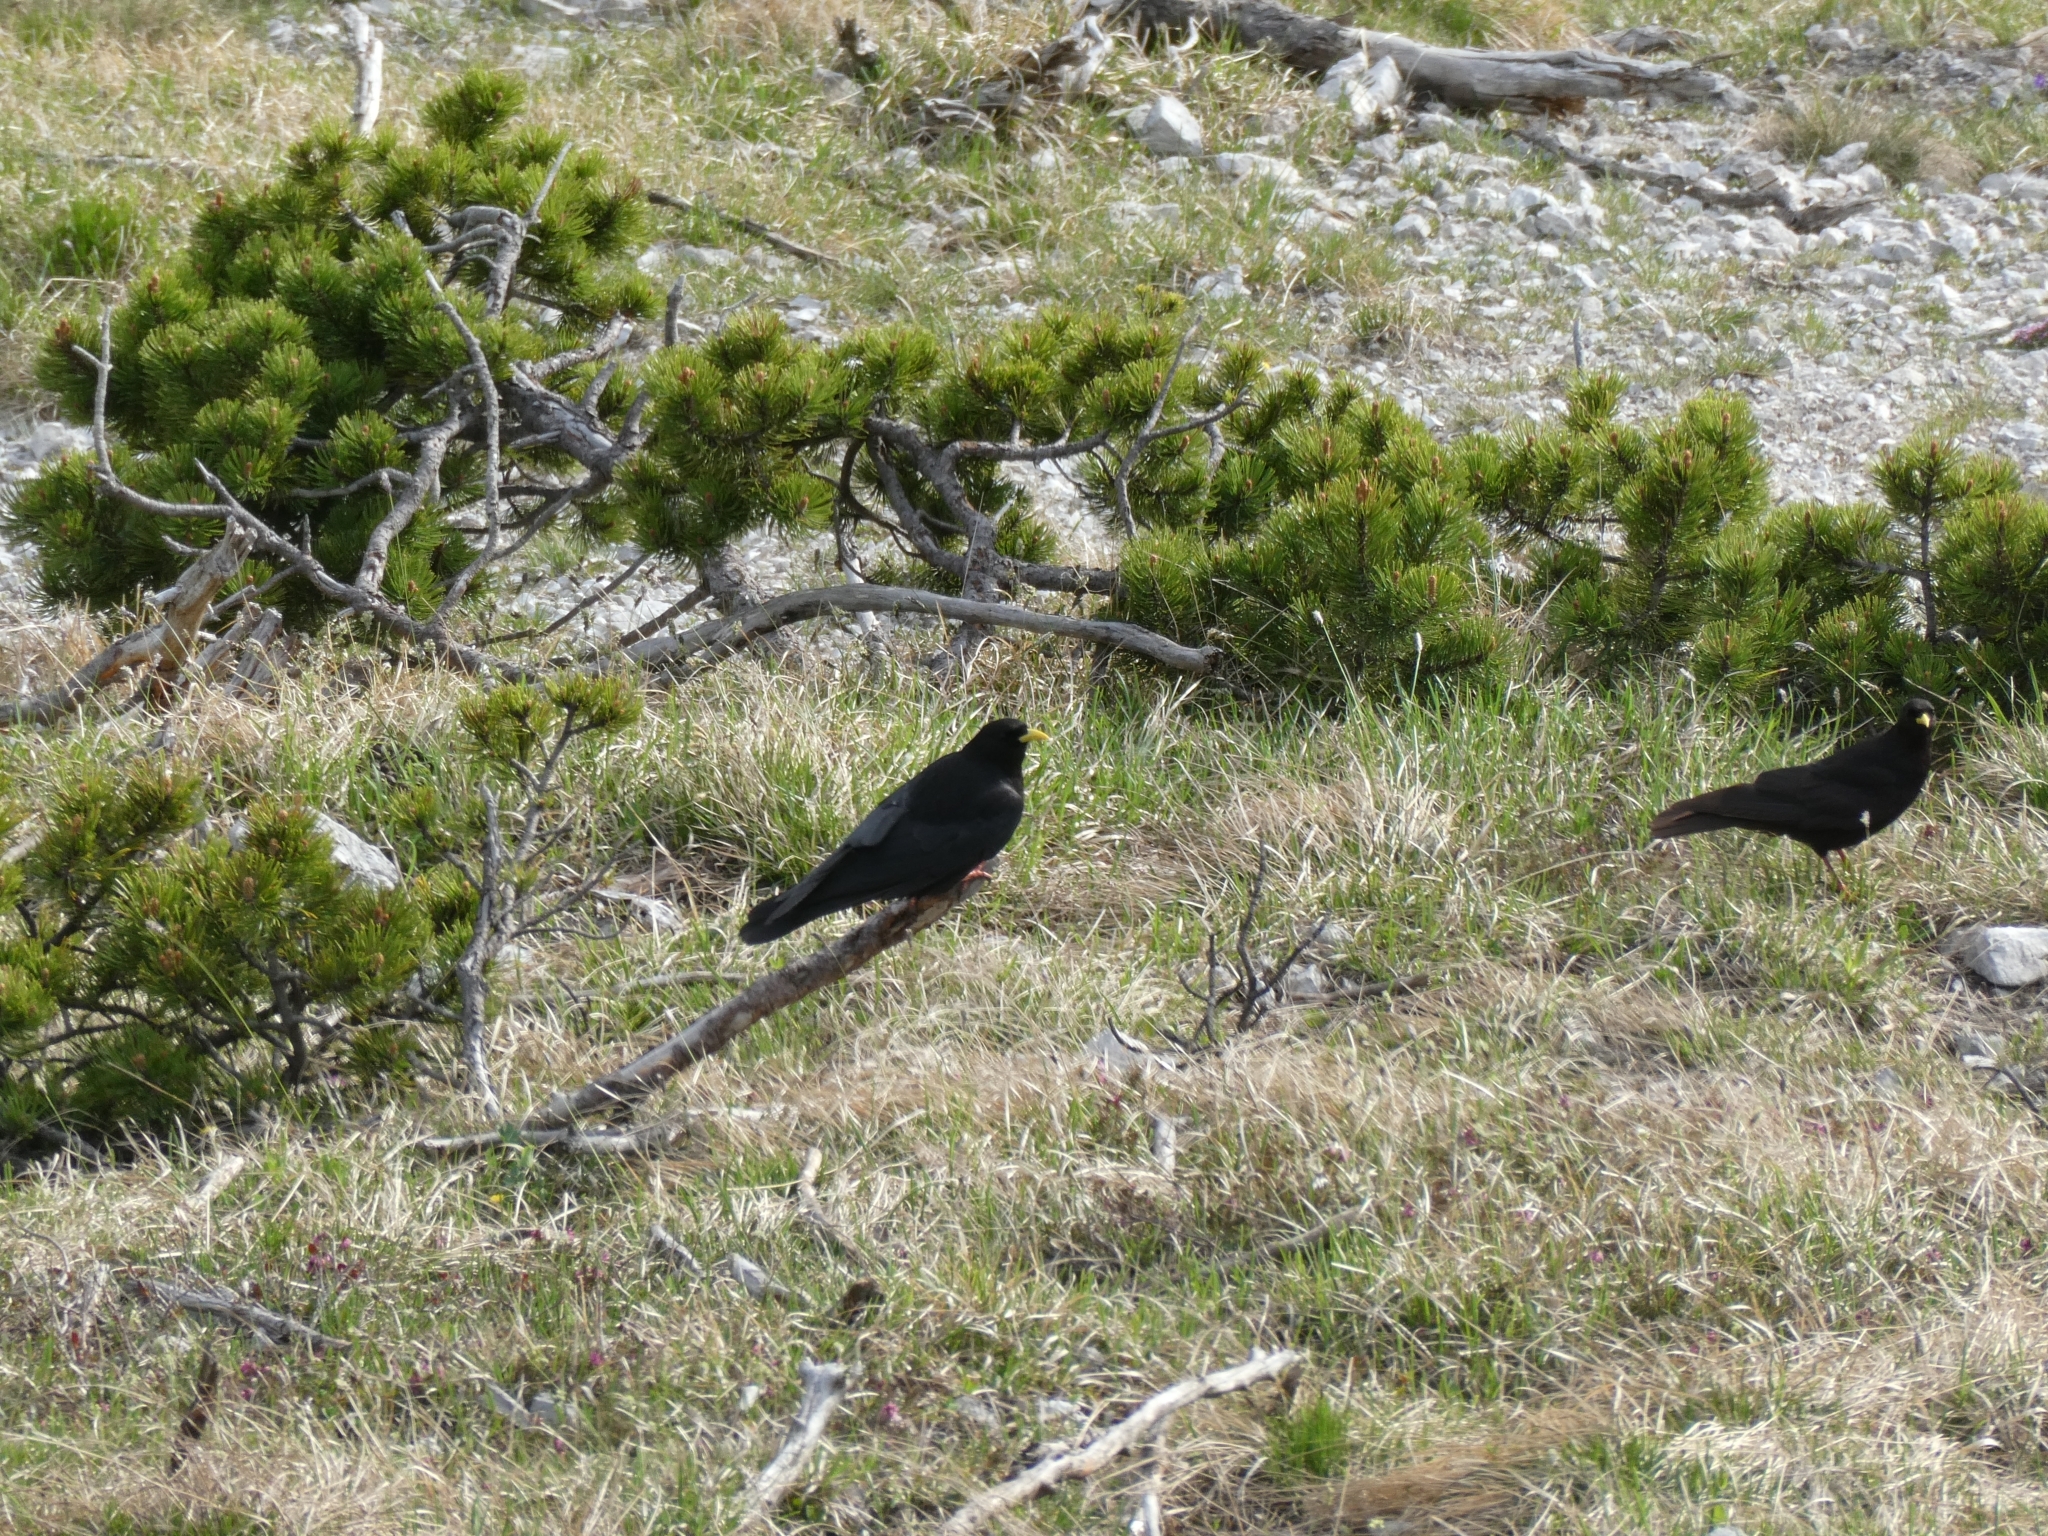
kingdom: Animalia
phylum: Chordata
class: Aves
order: Passeriformes
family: Corvidae
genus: Pyrrhocorax
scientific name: Pyrrhocorax graculus
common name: Alpine chough
